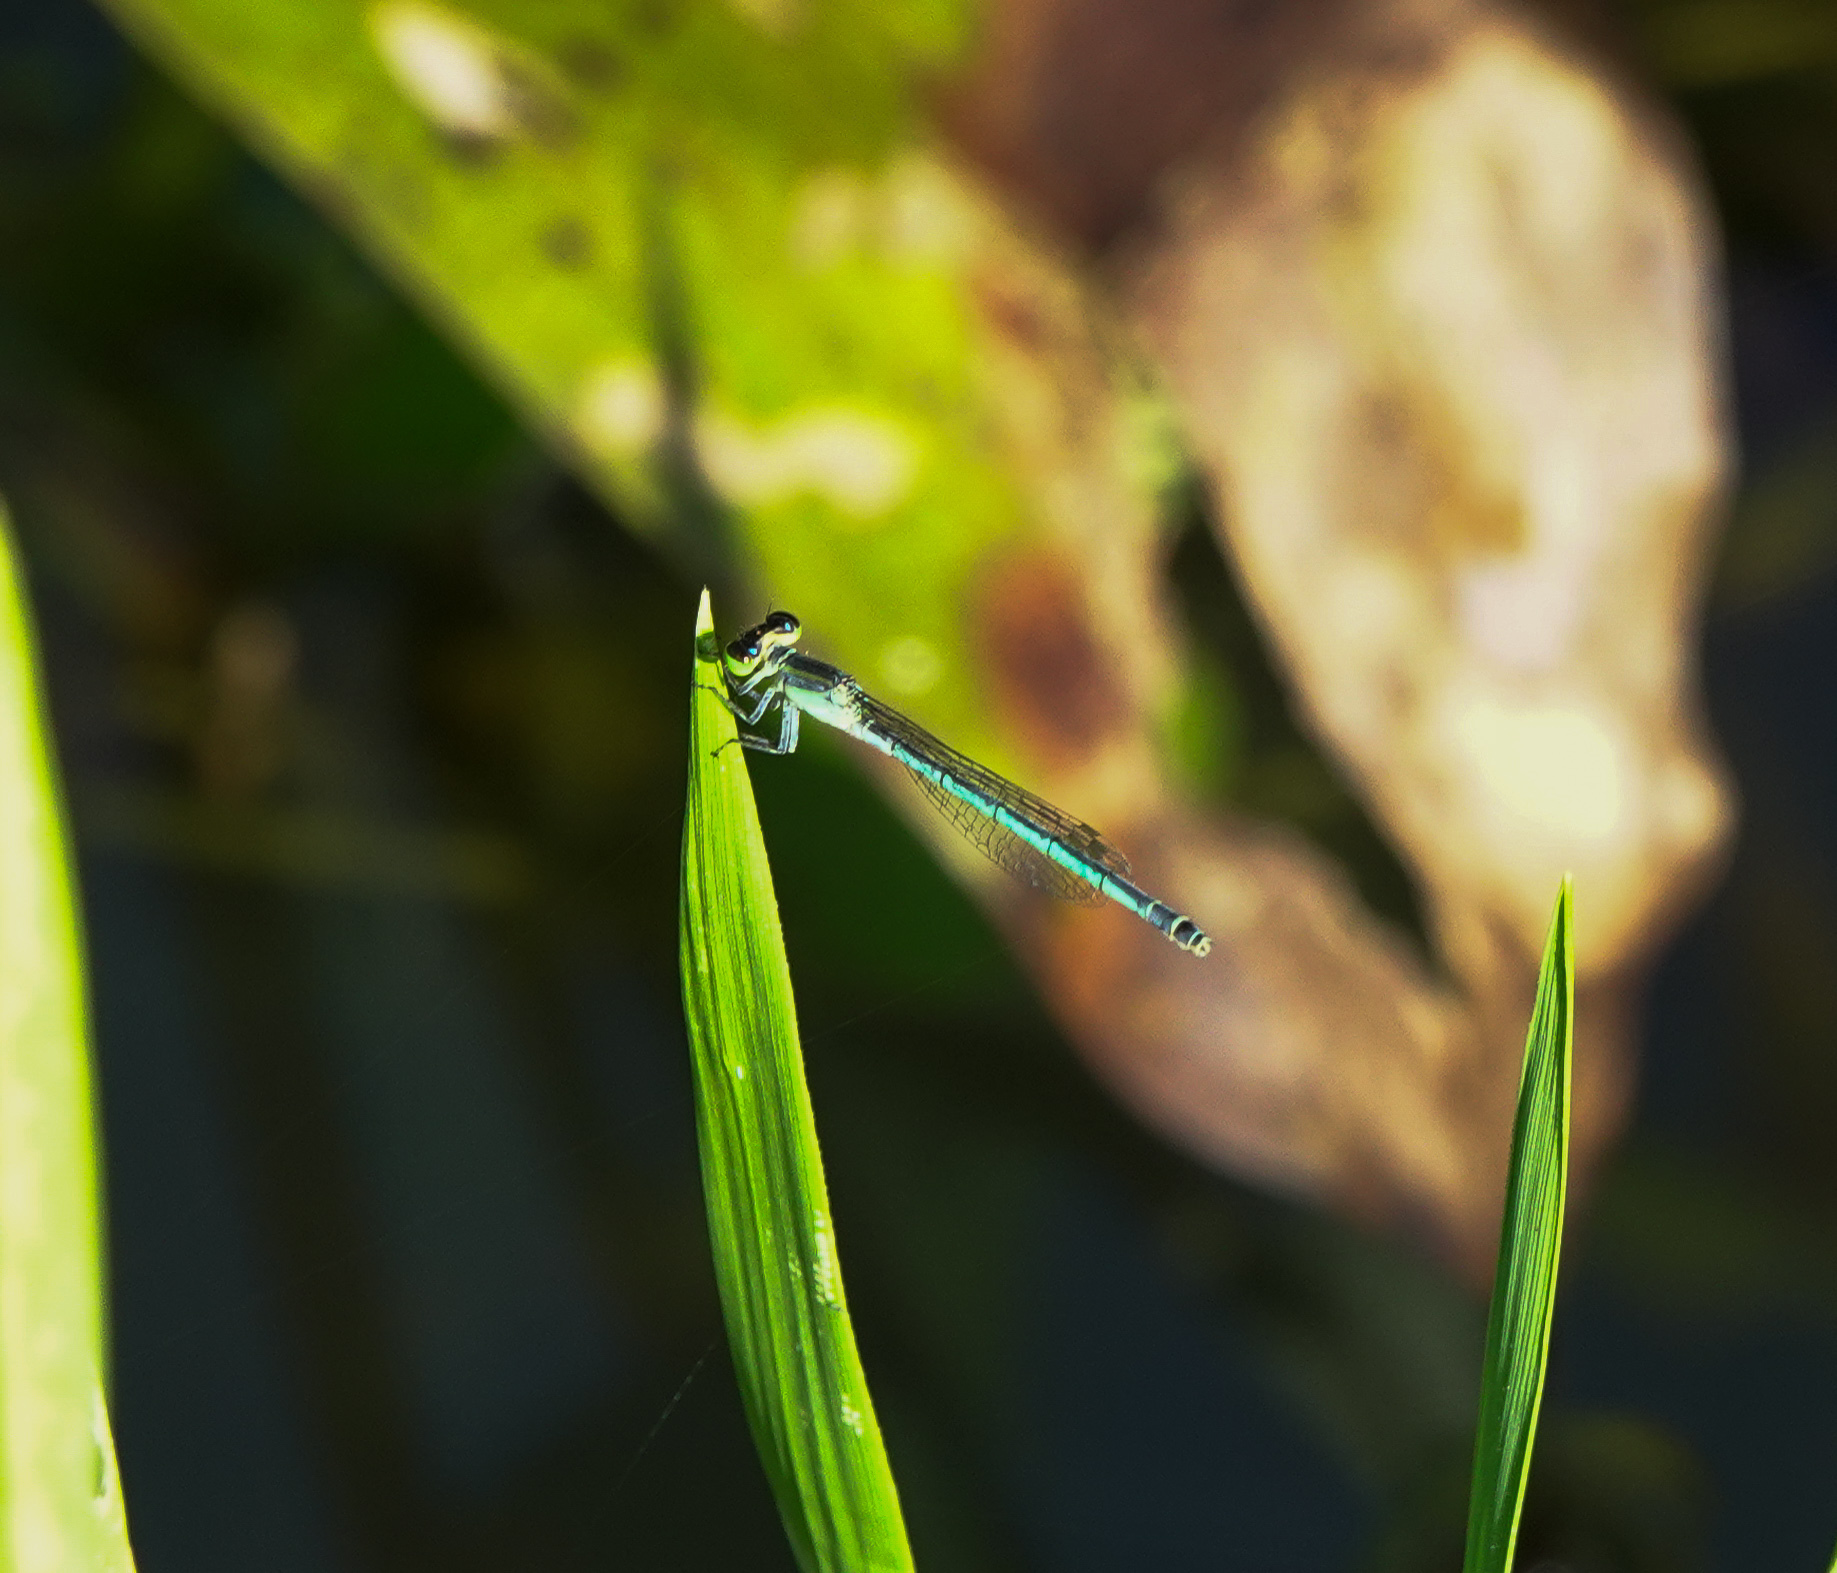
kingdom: Animalia
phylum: Arthropoda
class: Insecta
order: Odonata
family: Coenagrionidae
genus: Agriocnemis
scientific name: Agriocnemis lacteola
